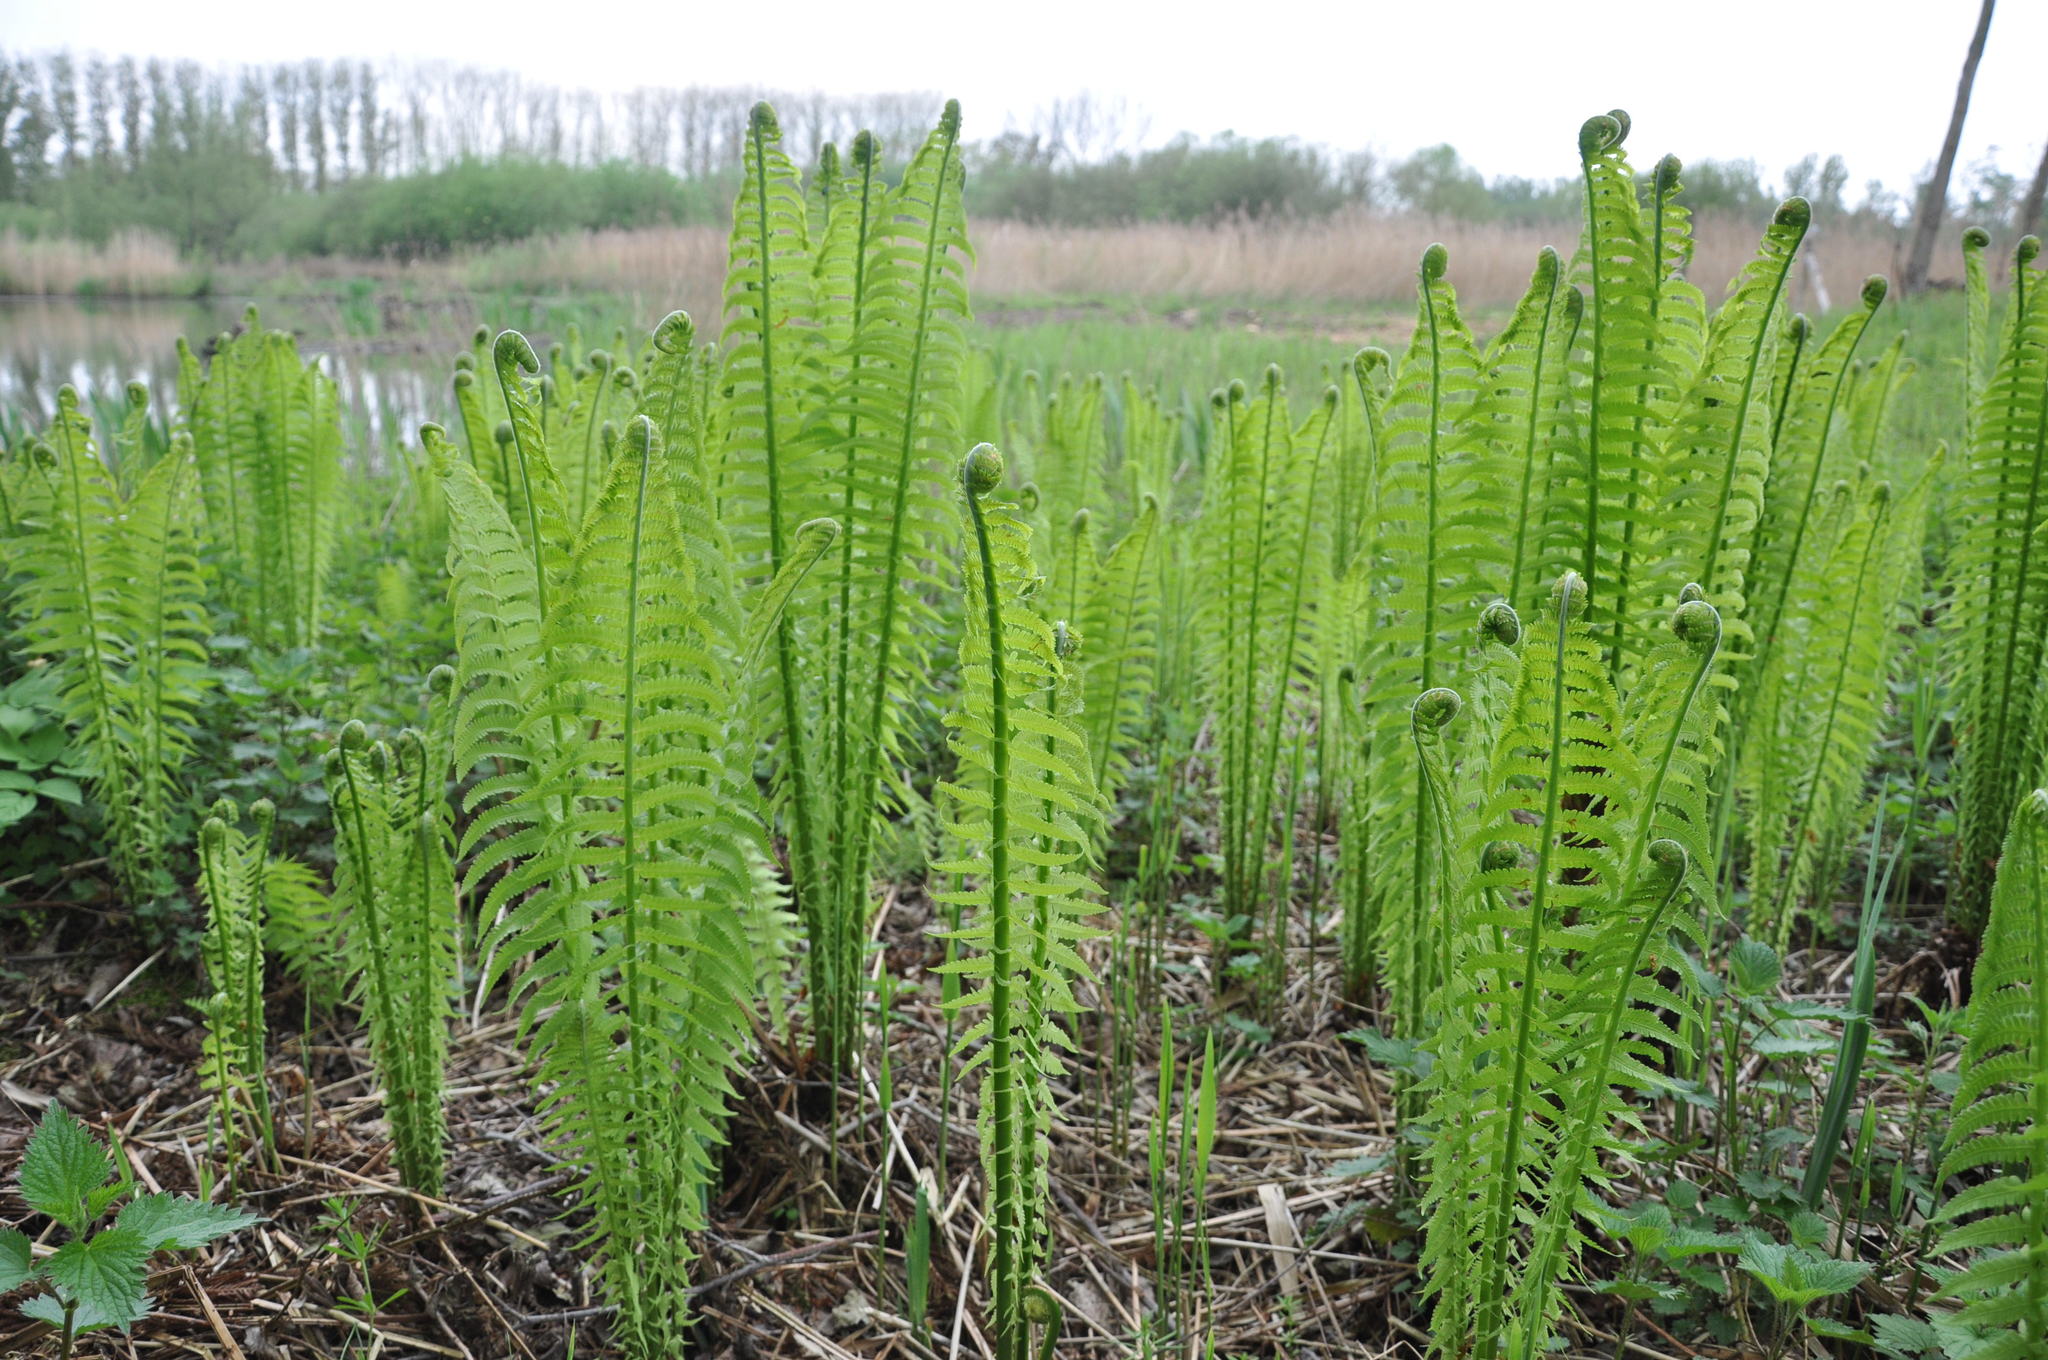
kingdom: Plantae
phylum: Tracheophyta
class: Polypodiopsida
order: Polypodiales
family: Onocleaceae
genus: Matteuccia
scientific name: Matteuccia struthiopteris
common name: Ostrich fern
